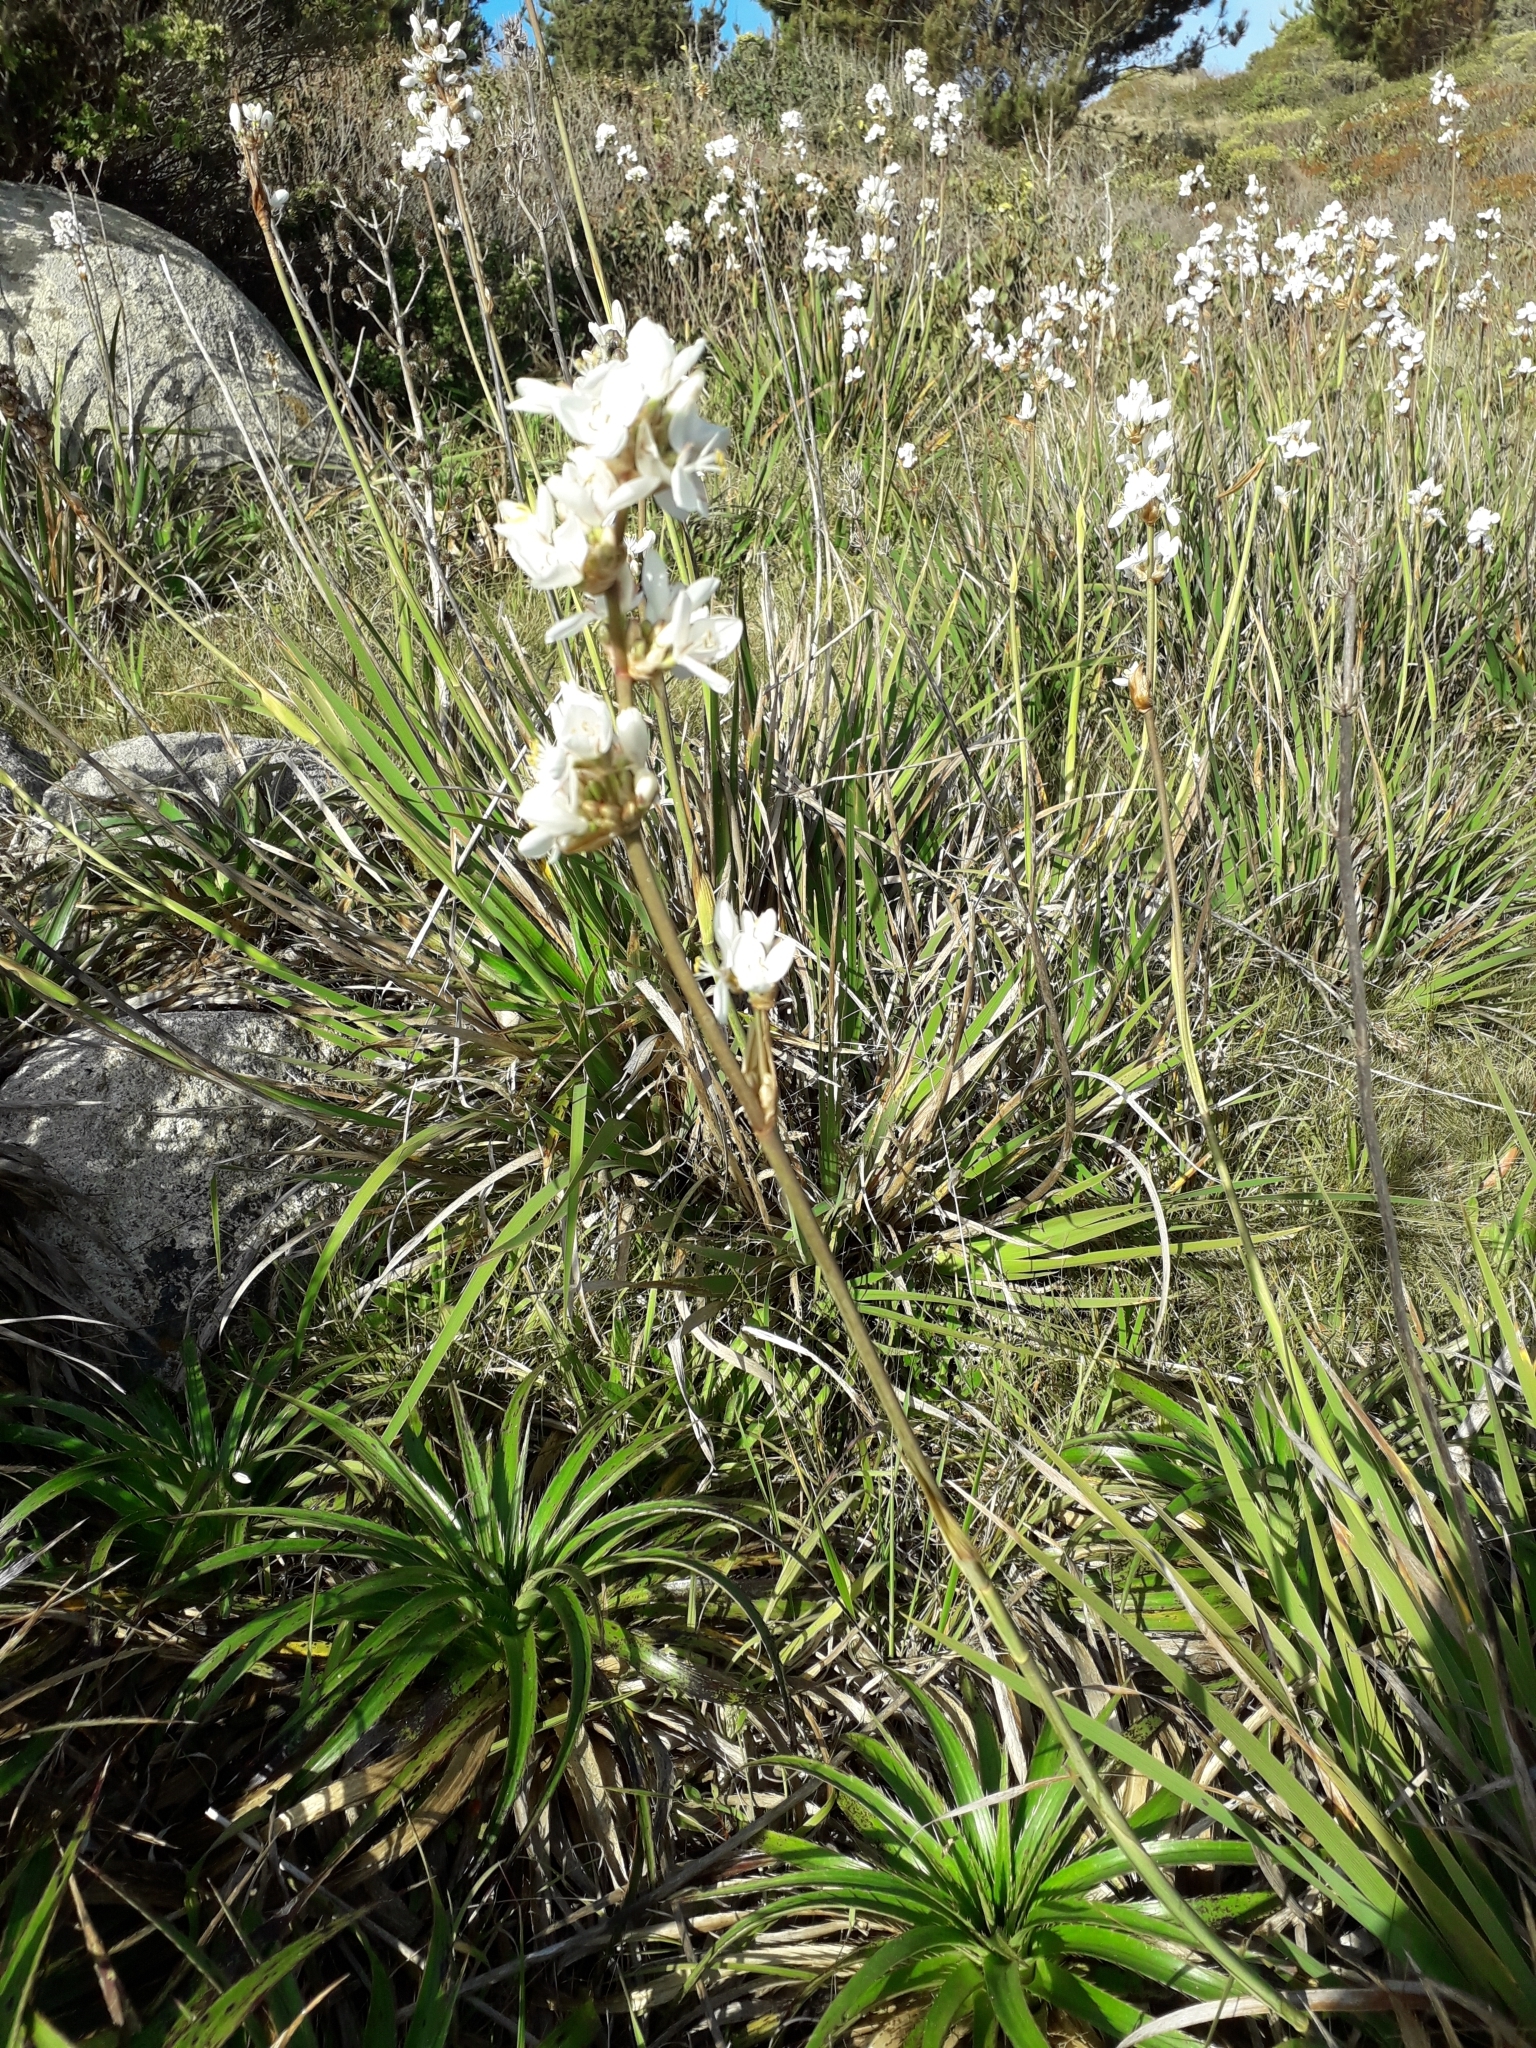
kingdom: Plantae
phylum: Tracheophyta
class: Liliopsida
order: Asparagales
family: Iridaceae
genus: Libertia
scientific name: Libertia chilensis
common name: Satin flower
